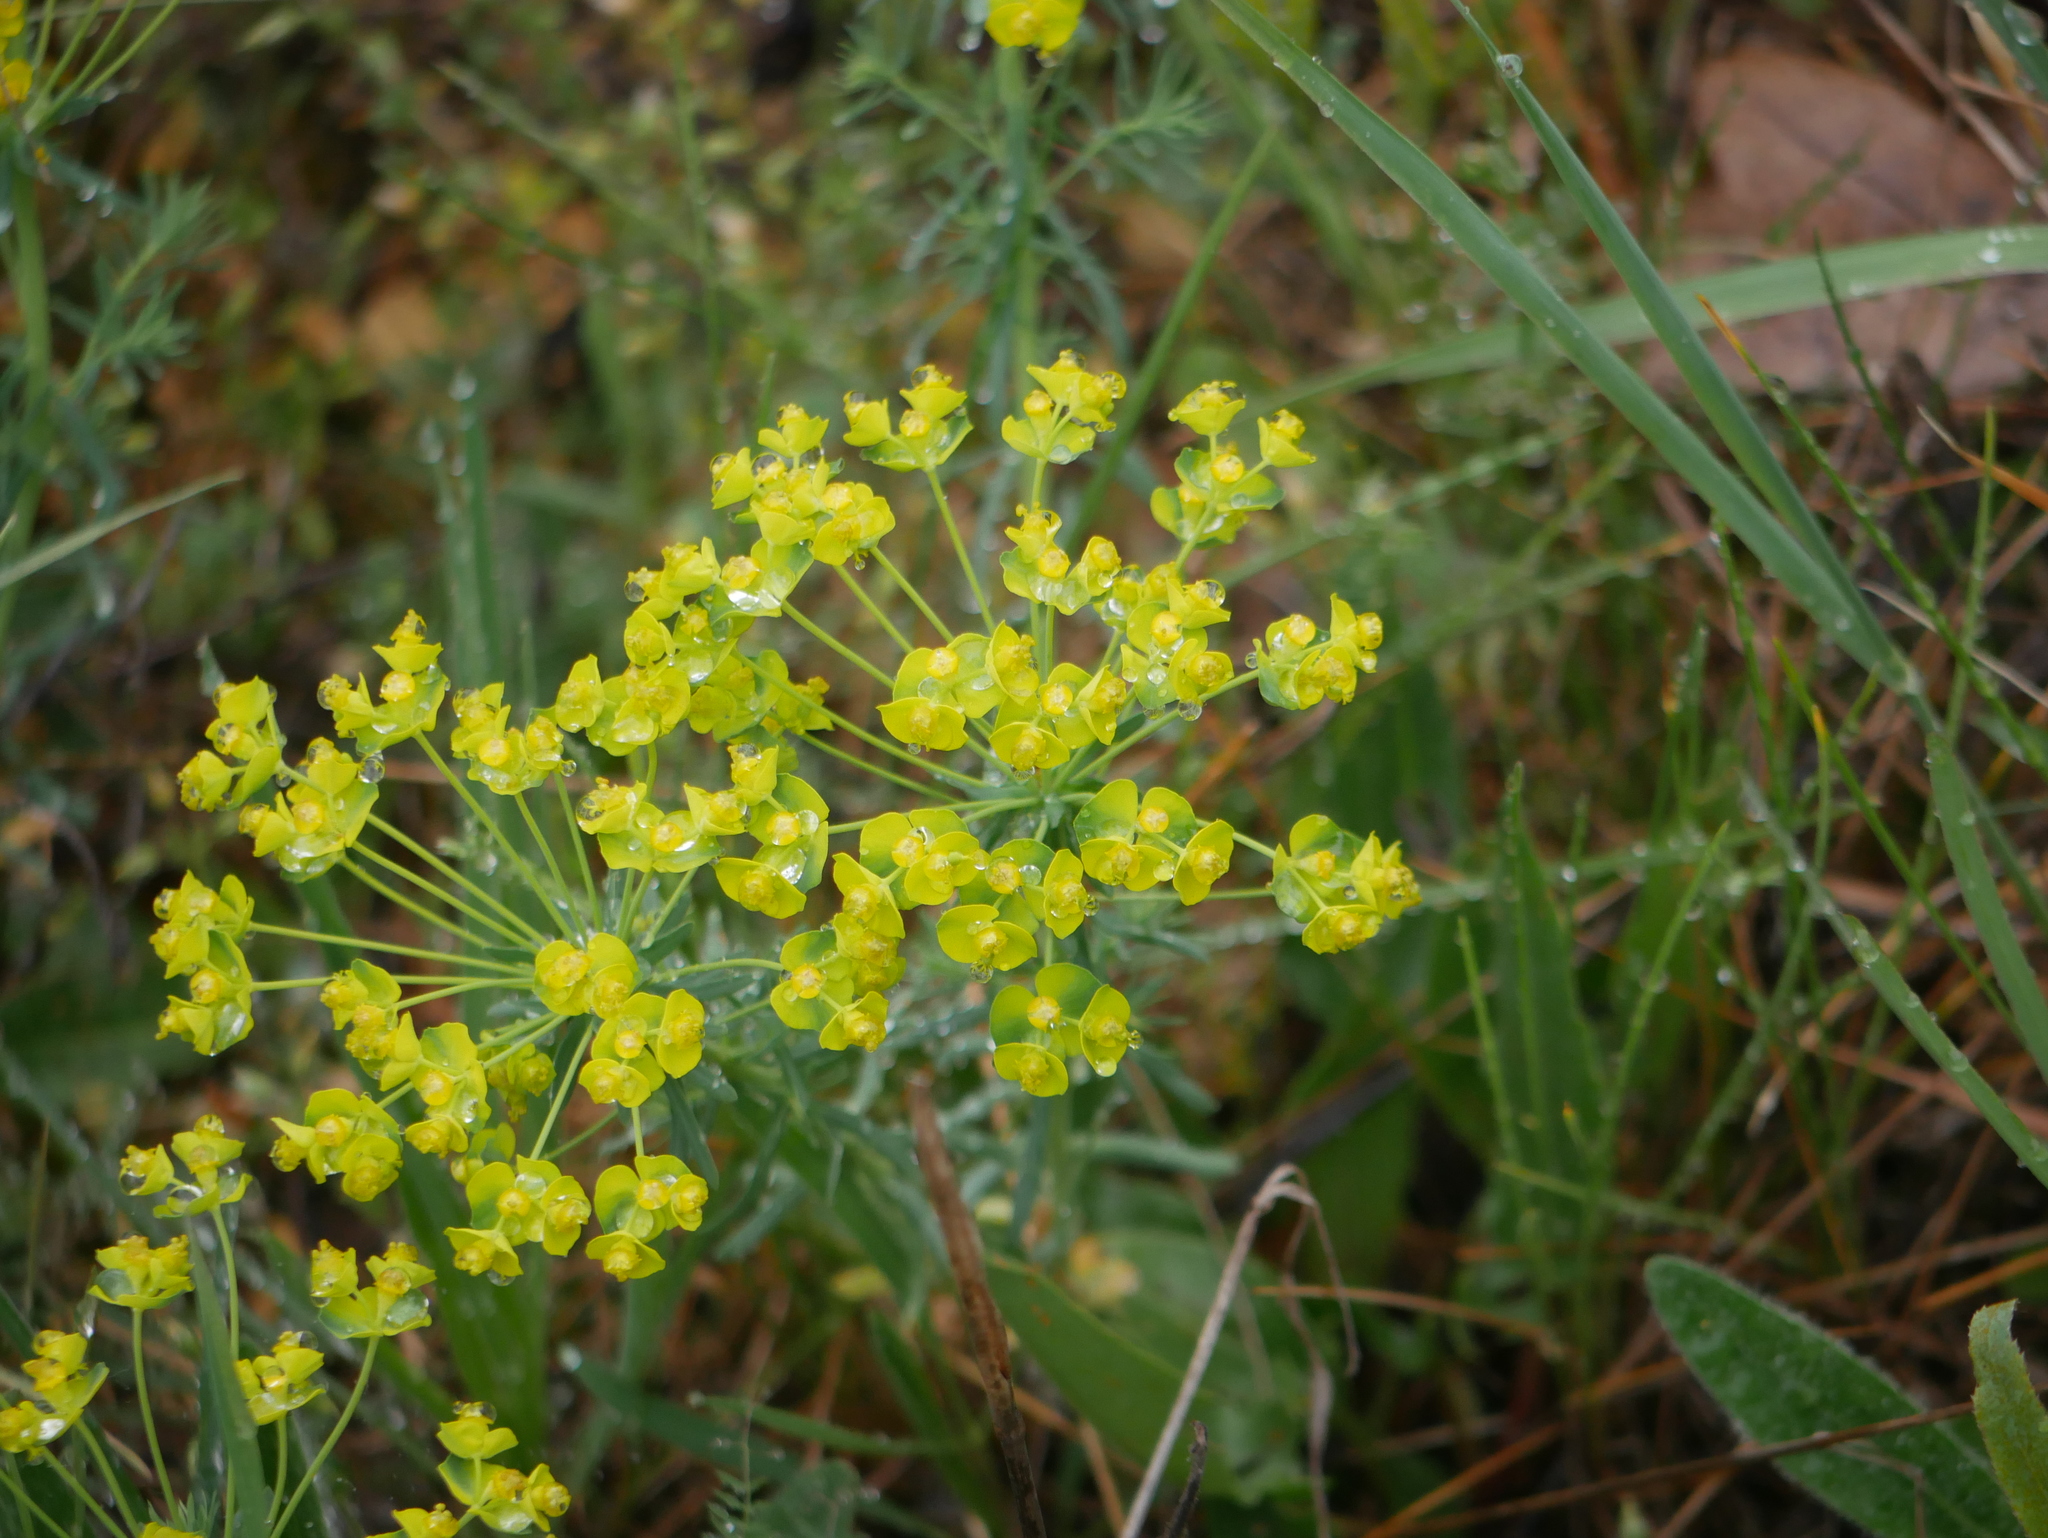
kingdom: Plantae
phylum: Tracheophyta
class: Magnoliopsida
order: Malpighiales
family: Euphorbiaceae
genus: Euphorbia
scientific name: Euphorbia cyparissias
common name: Cypress spurge
